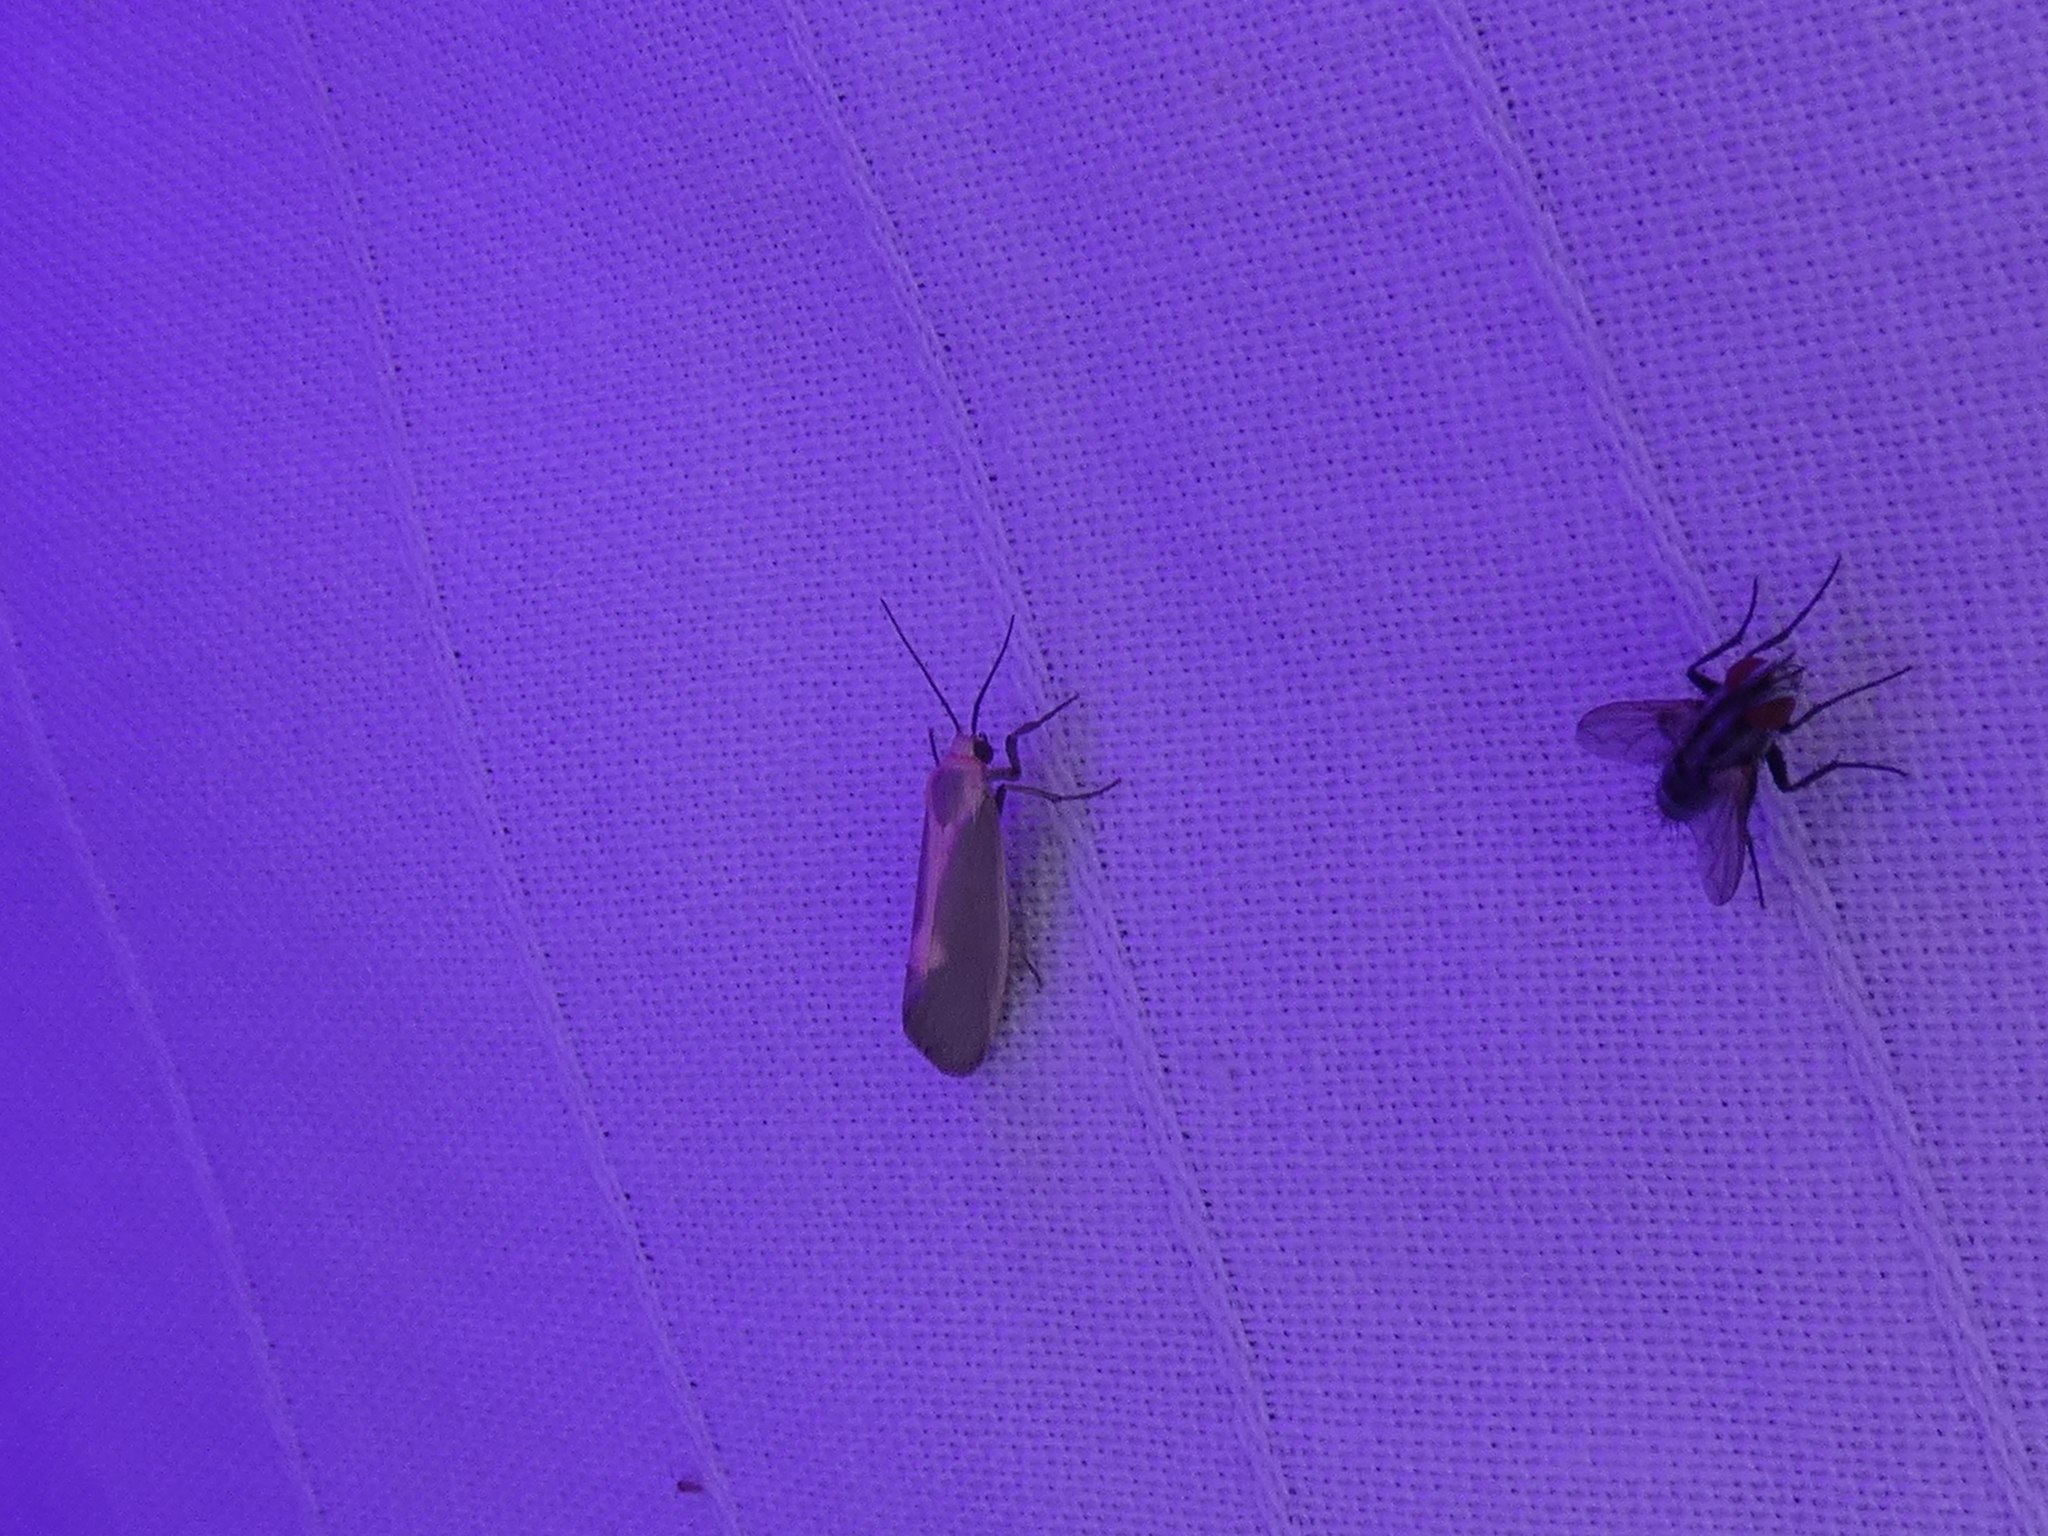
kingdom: Animalia
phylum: Arthropoda
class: Insecta
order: Lepidoptera
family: Erebidae
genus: Cisthene
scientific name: Cisthene plumbea
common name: Lead colored lichen moth
